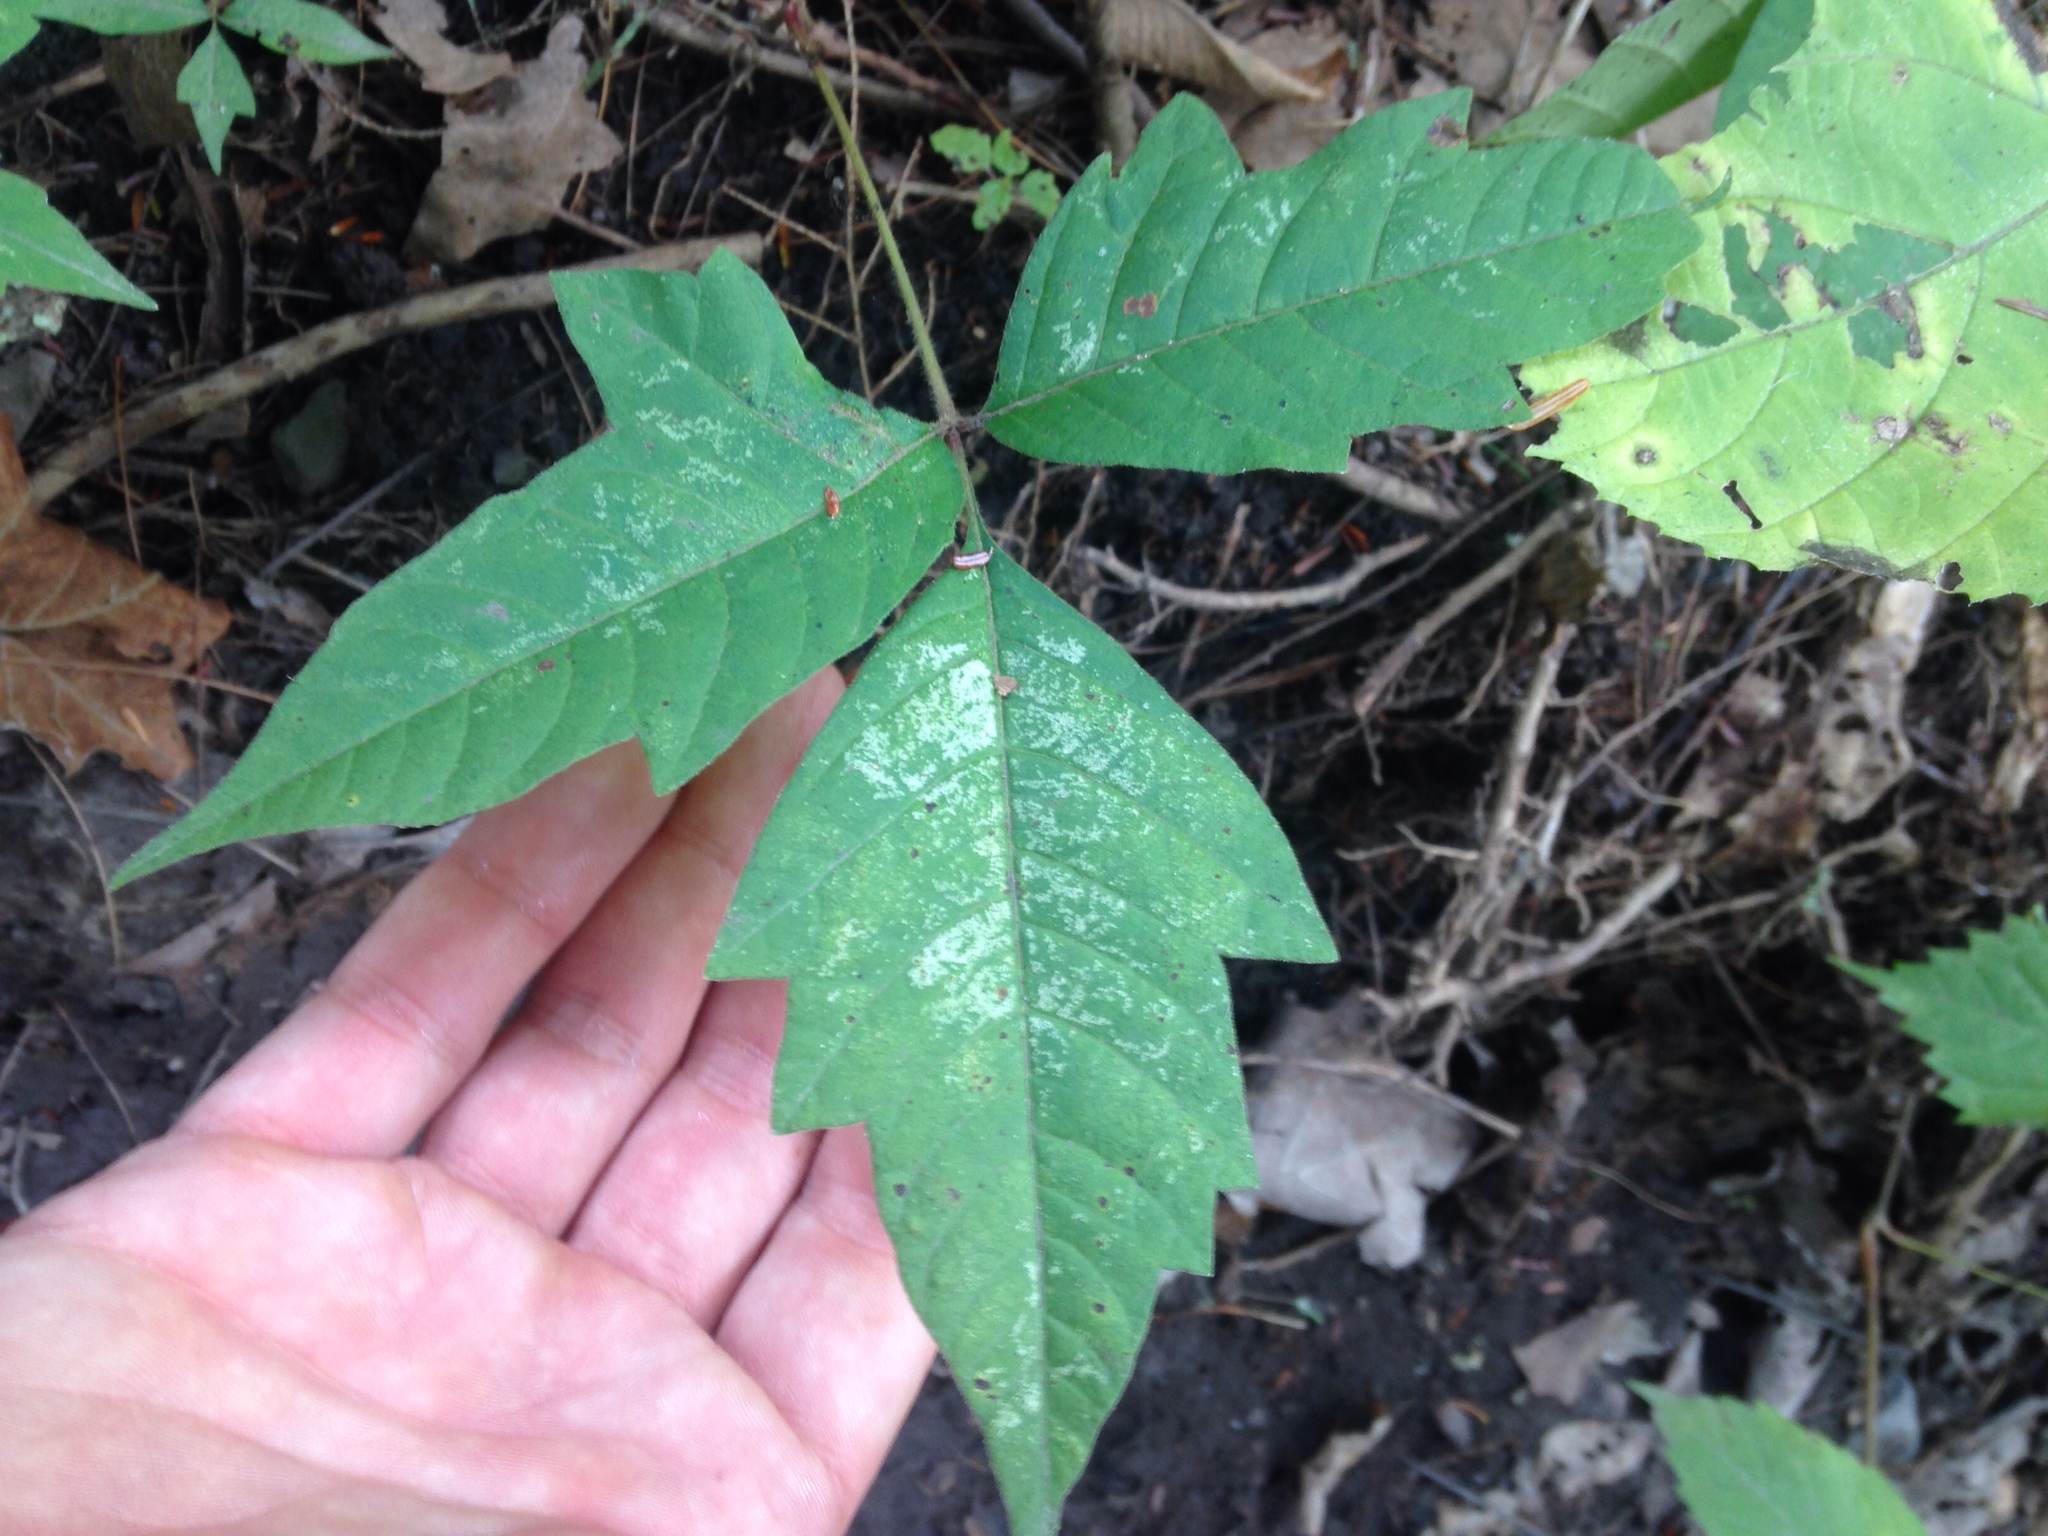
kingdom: Plantae
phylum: Tracheophyta
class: Magnoliopsida
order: Sapindales
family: Anacardiaceae
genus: Toxicodendron
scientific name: Toxicodendron radicans
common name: Poison ivy
